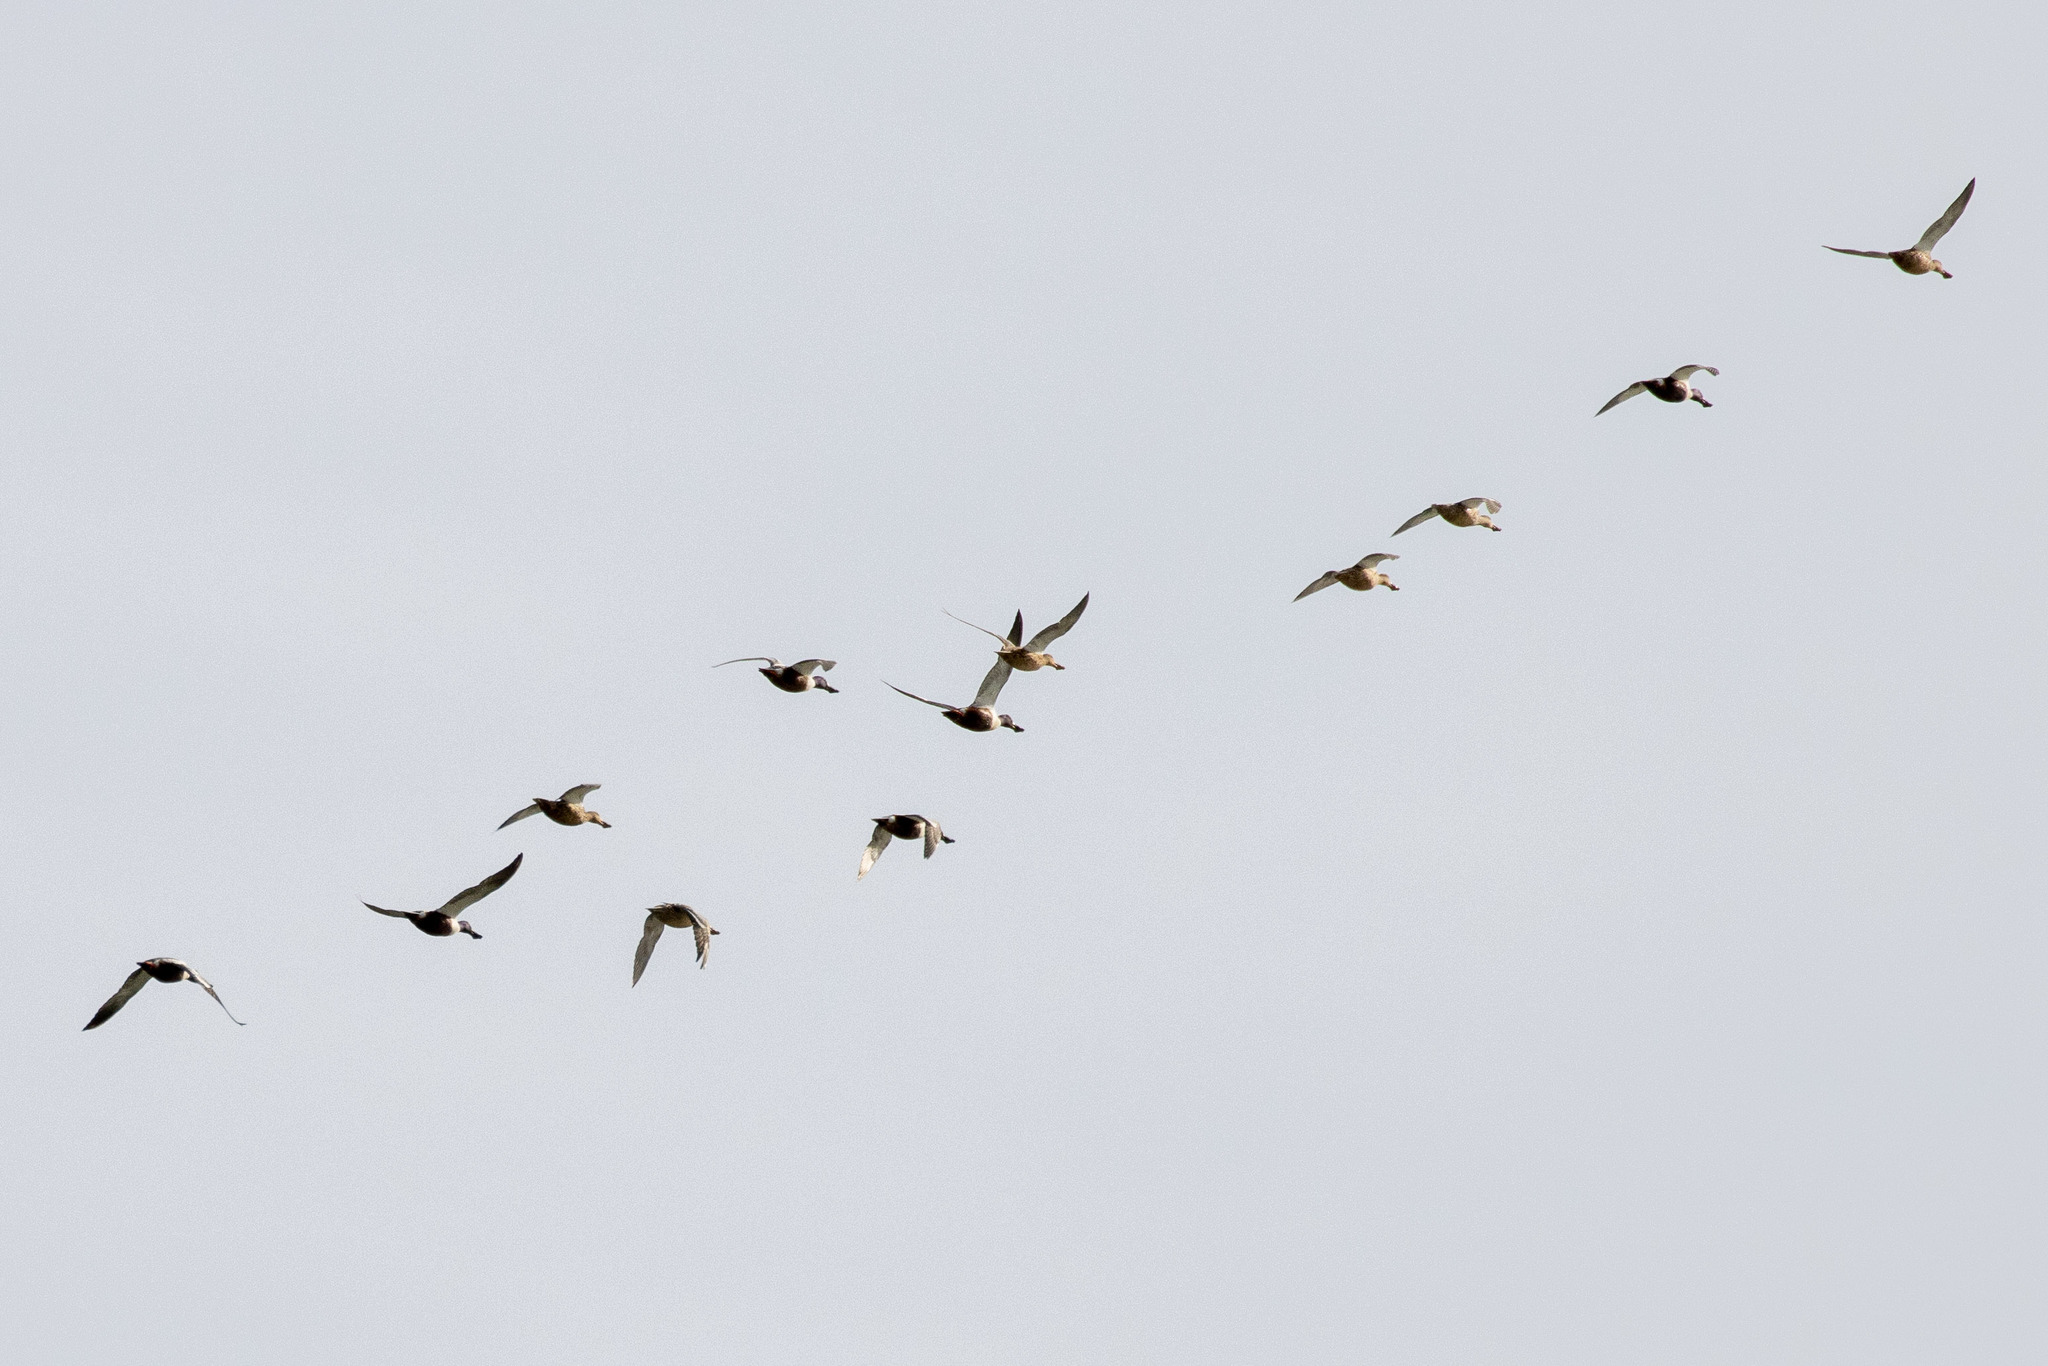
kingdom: Animalia
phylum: Chordata
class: Aves
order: Anseriformes
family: Anatidae
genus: Spatula
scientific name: Spatula clypeata
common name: Northern shoveler
